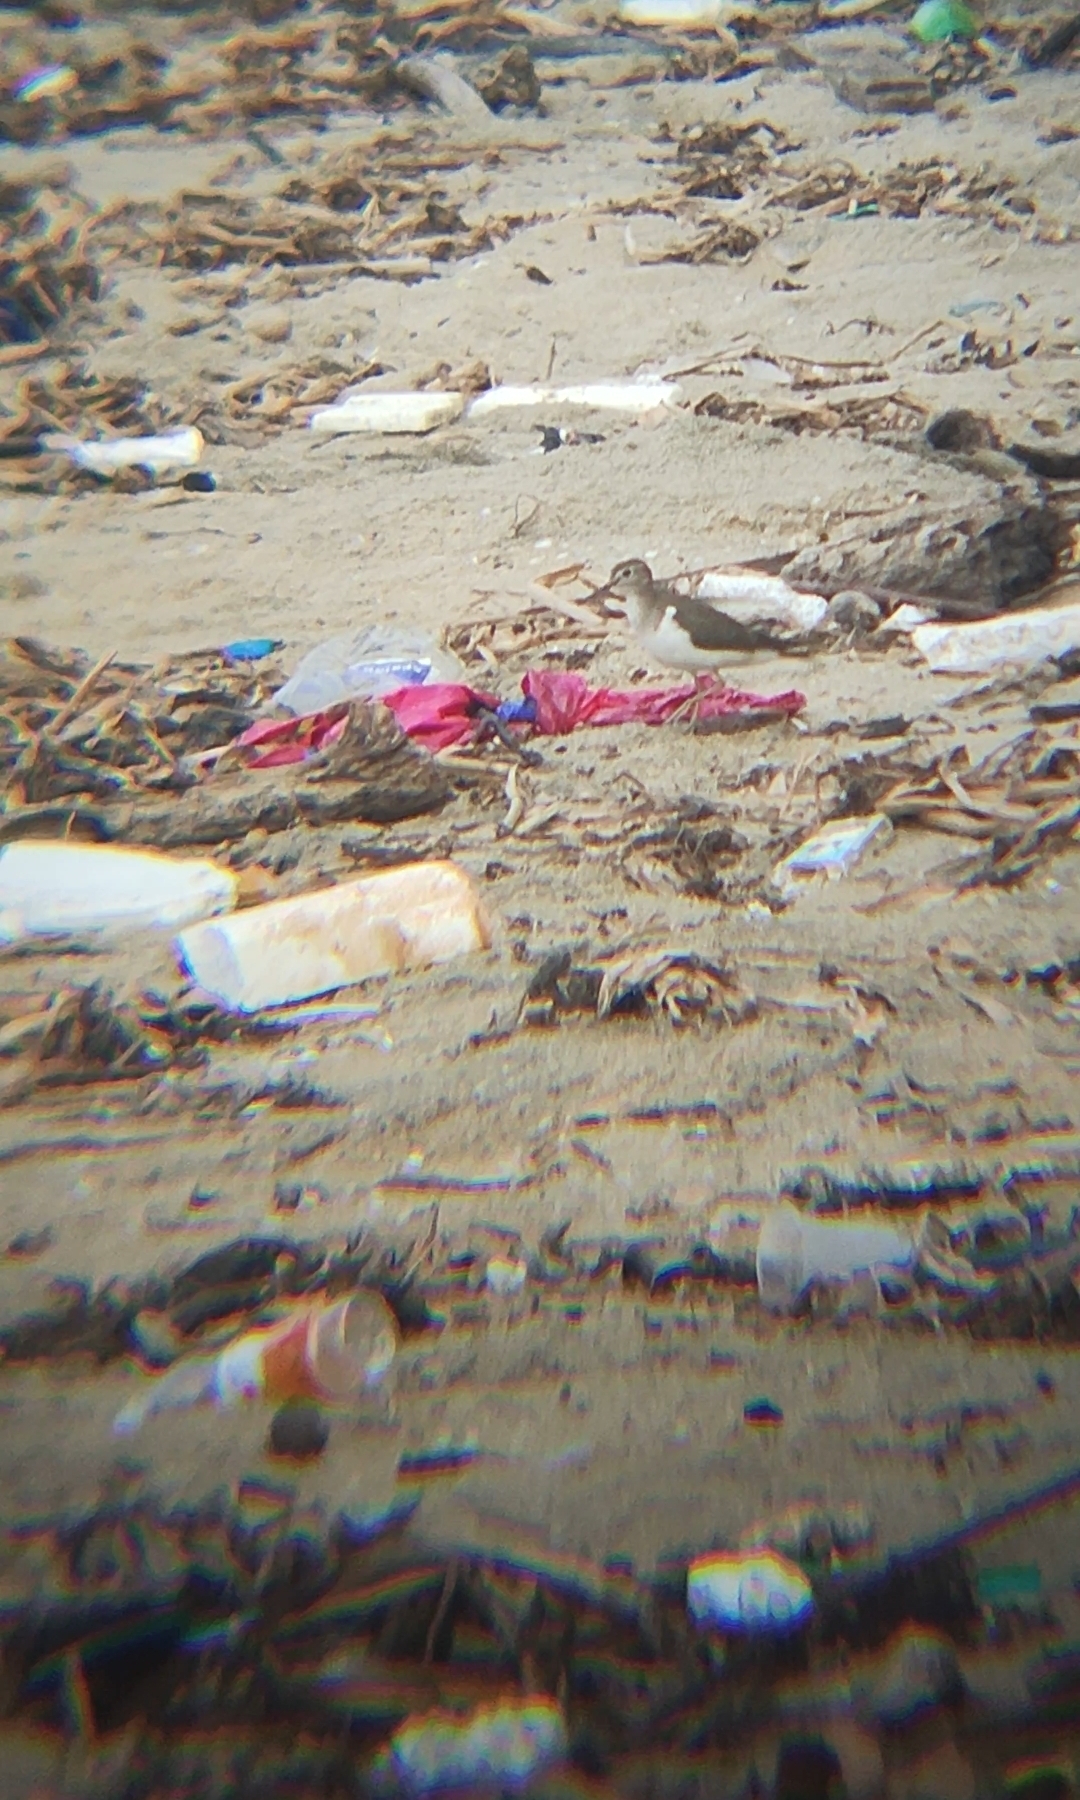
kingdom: Animalia
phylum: Chordata
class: Aves
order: Charadriiformes
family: Scolopacidae
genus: Actitis
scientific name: Actitis hypoleucos
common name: Common sandpiper
